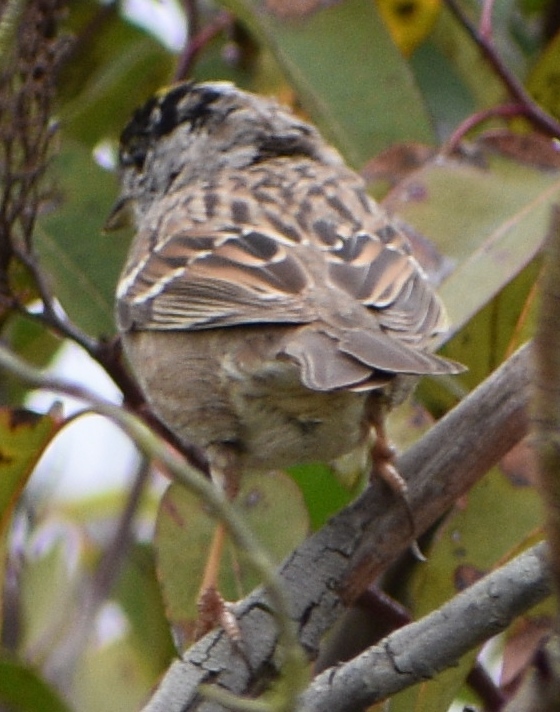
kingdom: Animalia
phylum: Chordata
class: Aves
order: Passeriformes
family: Passerellidae
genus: Zonotrichia
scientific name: Zonotrichia atricapilla
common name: Golden-crowned sparrow
